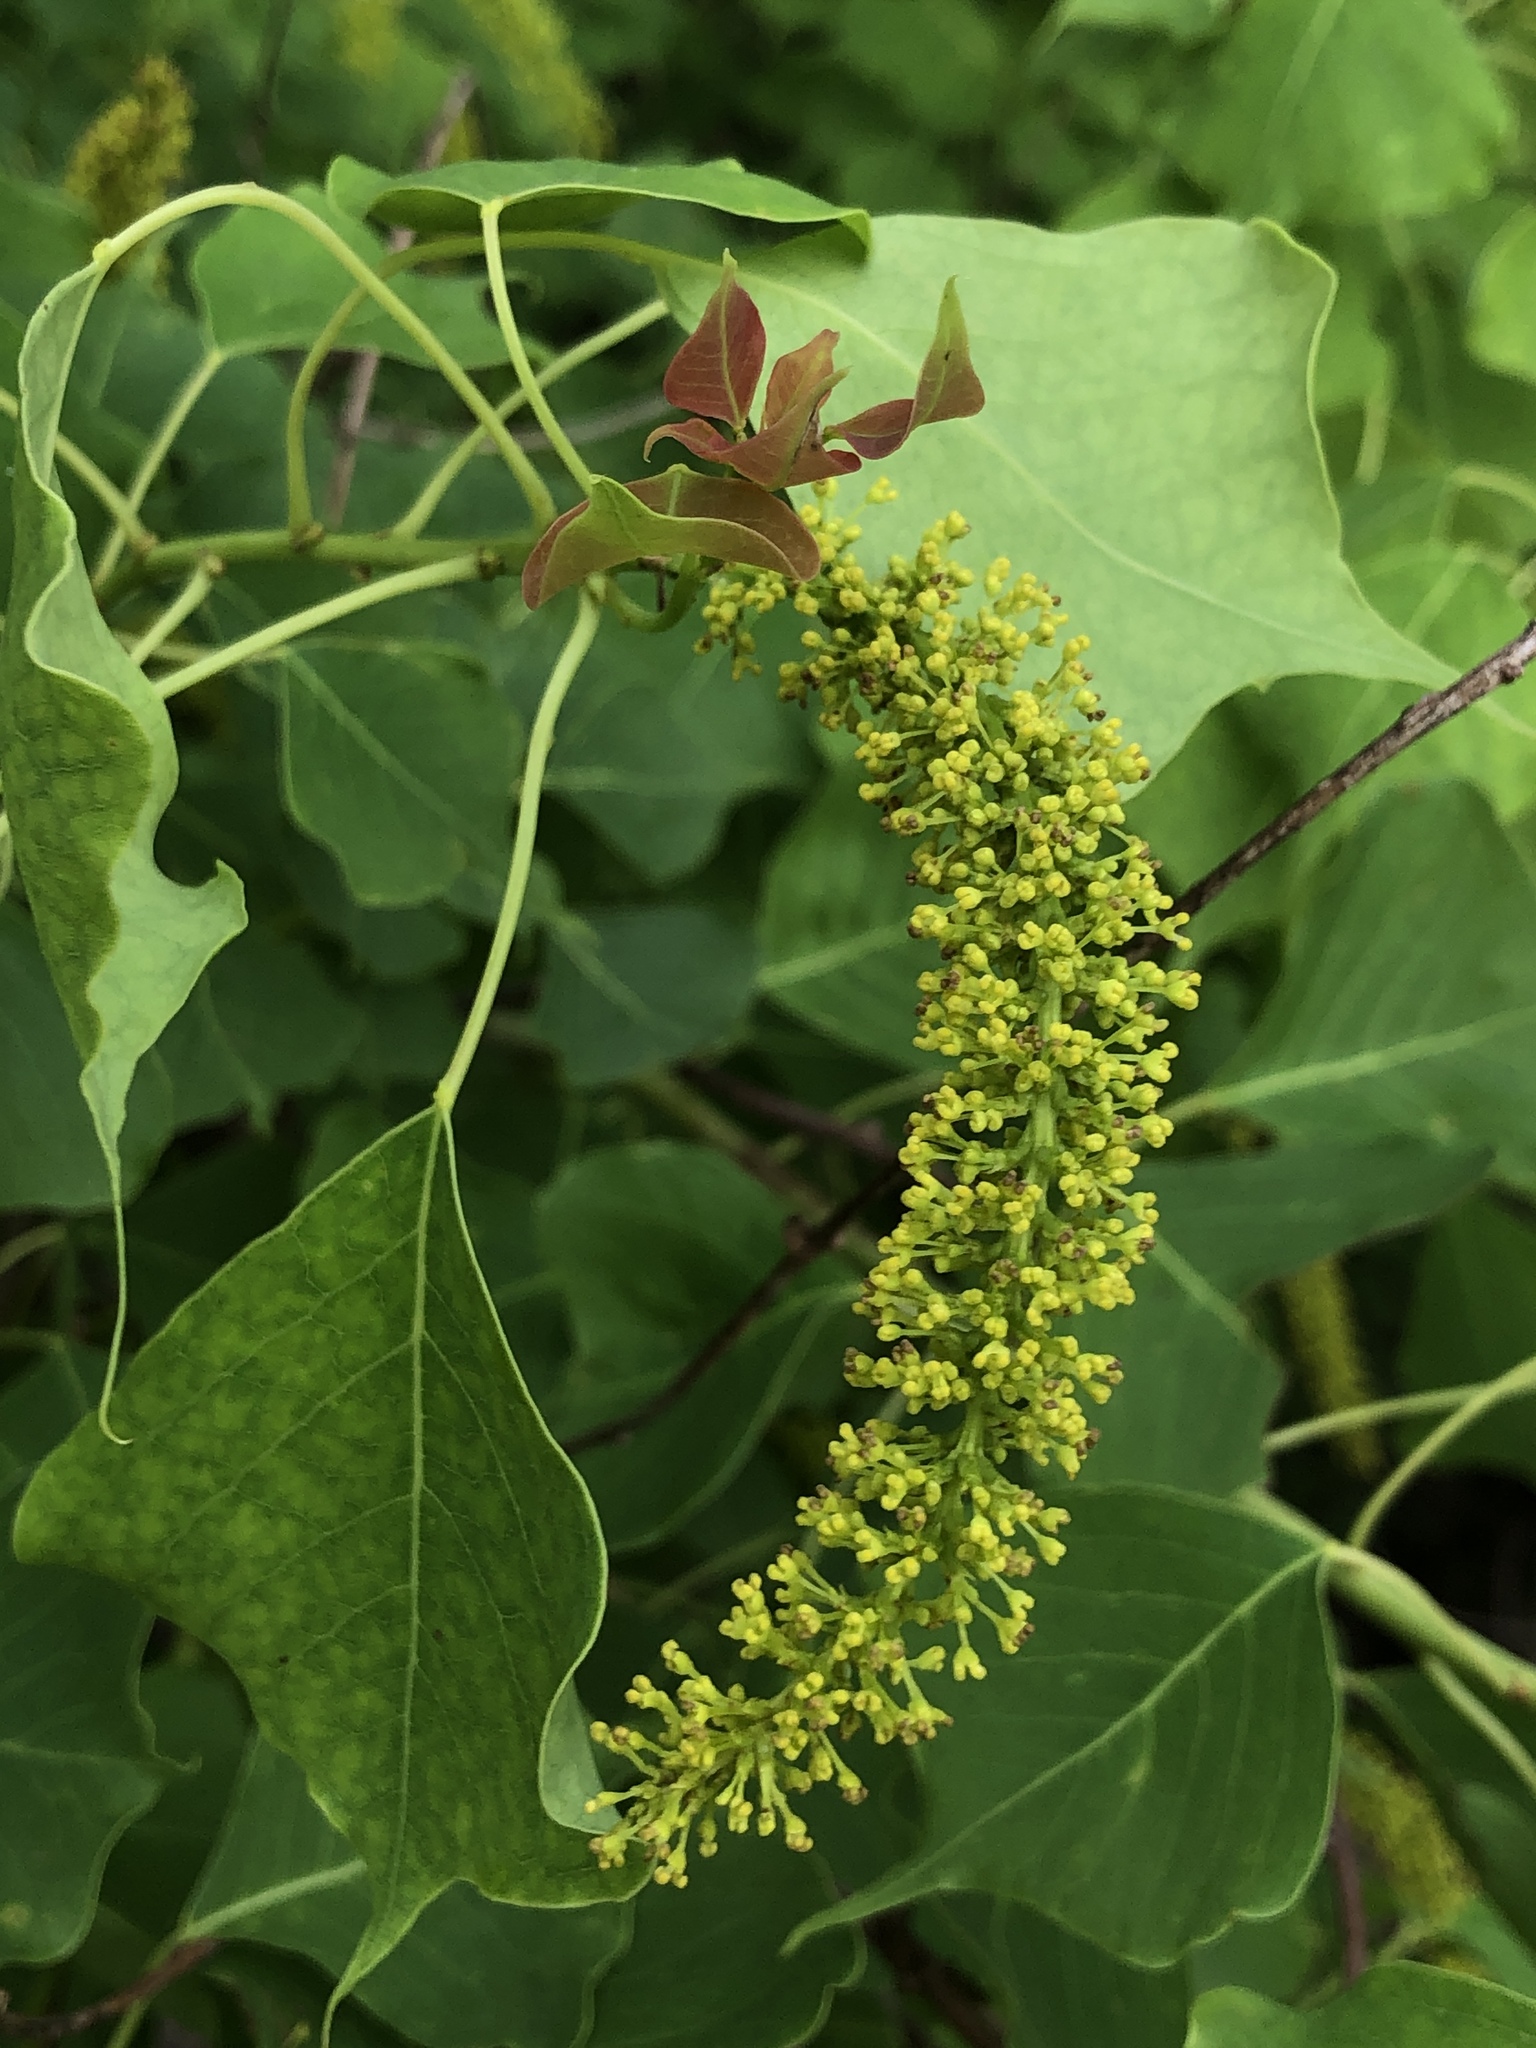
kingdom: Plantae
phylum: Tracheophyta
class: Magnoliopsida
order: Malpighiales
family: Euphorbiaceae
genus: Triadica
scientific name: Triadica sebifera
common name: Chinese tallow
